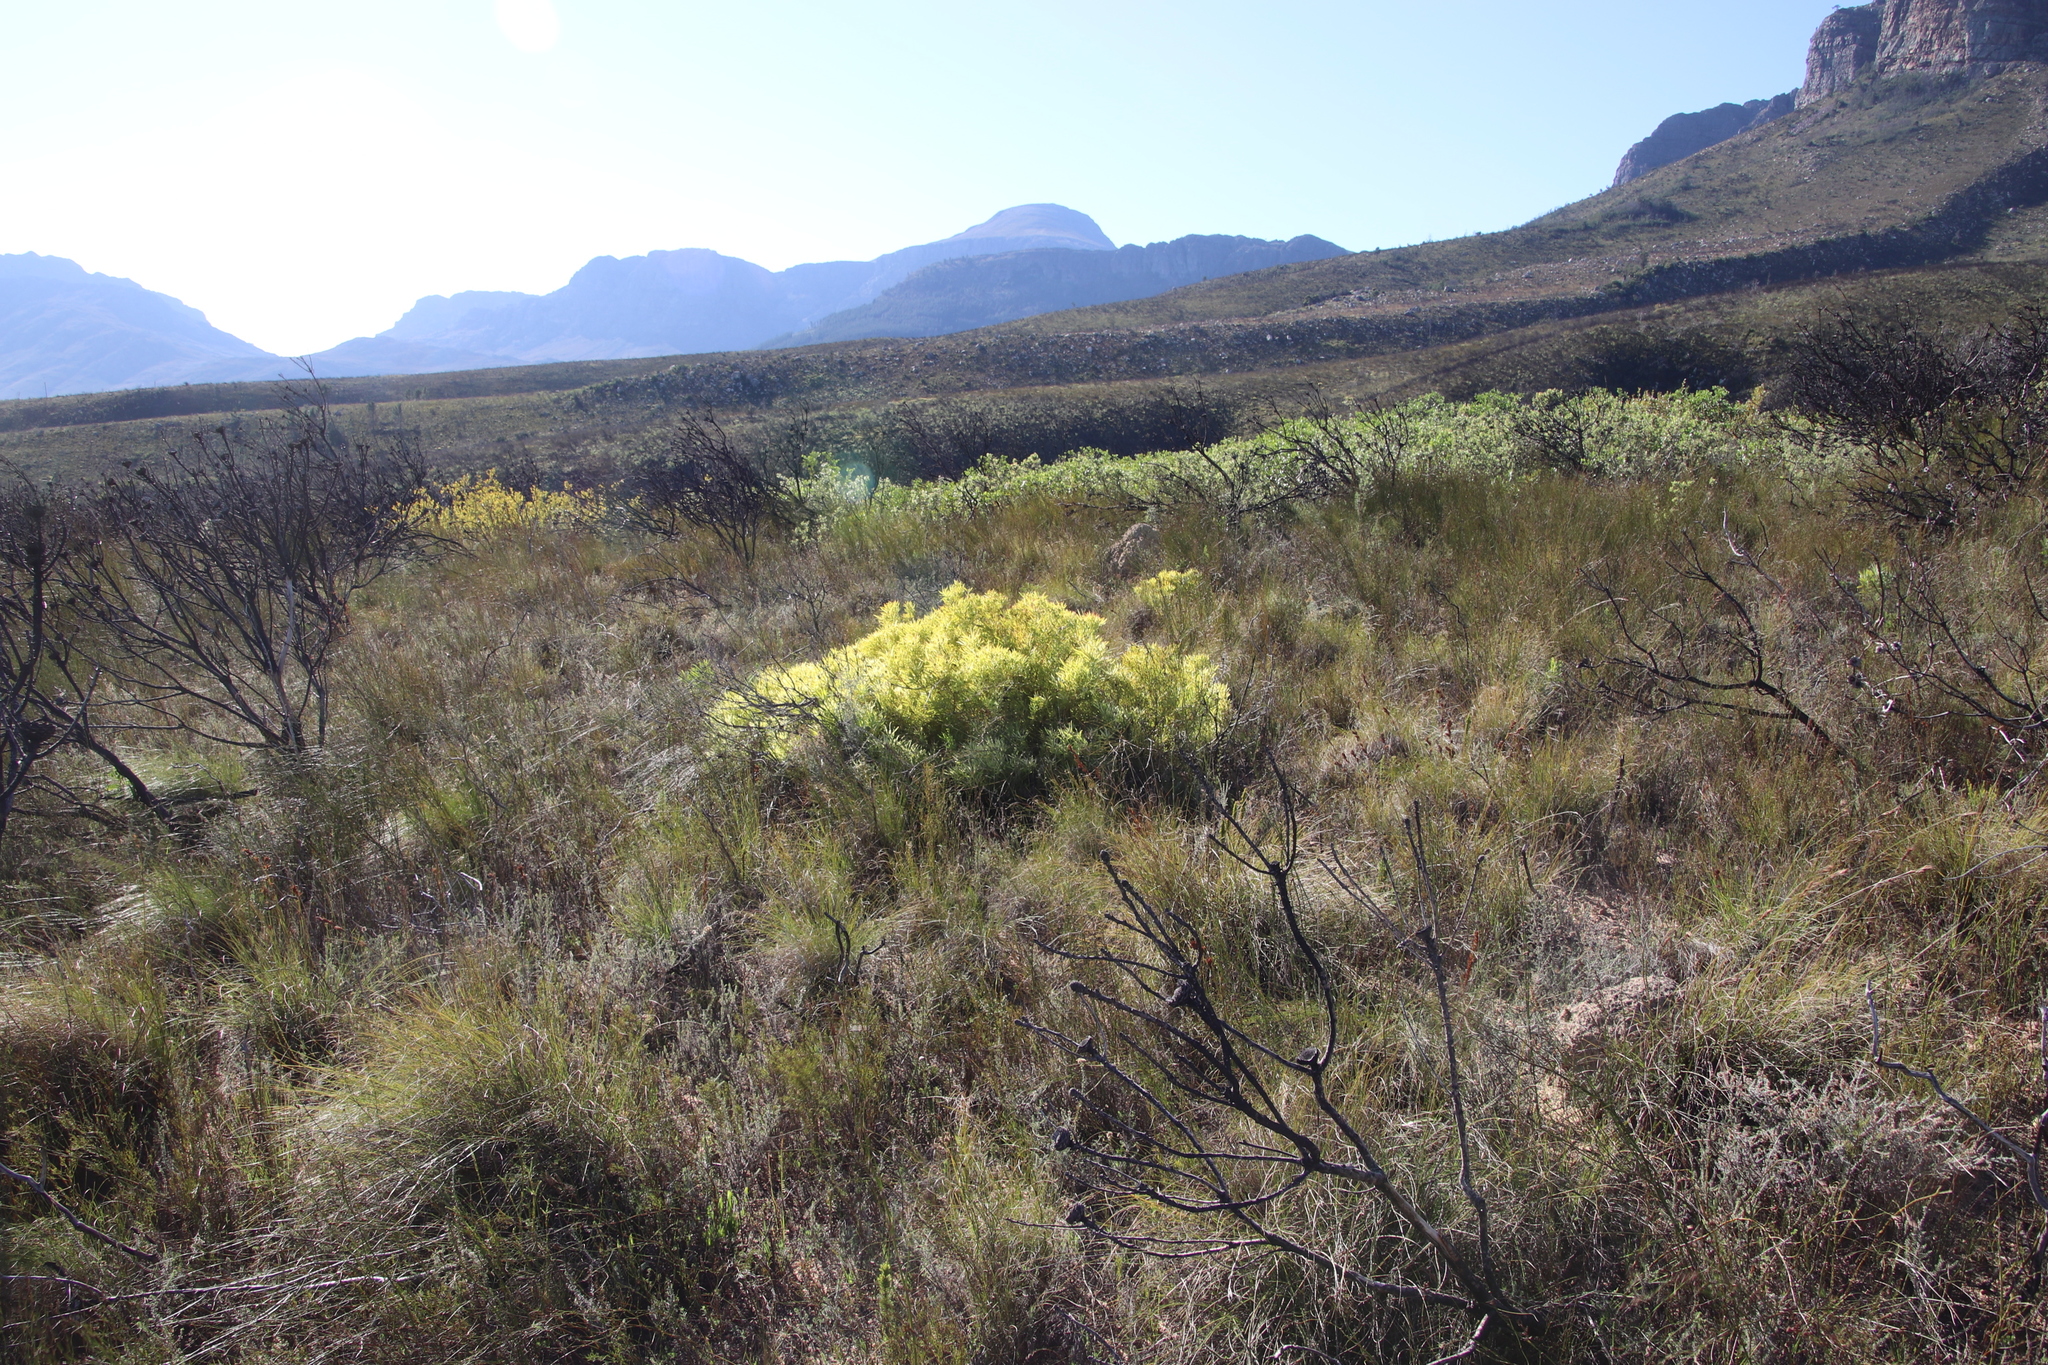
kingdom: Plantae
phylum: Tracheophyta
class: Magnoliopsida
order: Proteales
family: Proteaceae
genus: Leucadendron
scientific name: Leucadendron salignum
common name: Common sunshine conebush
